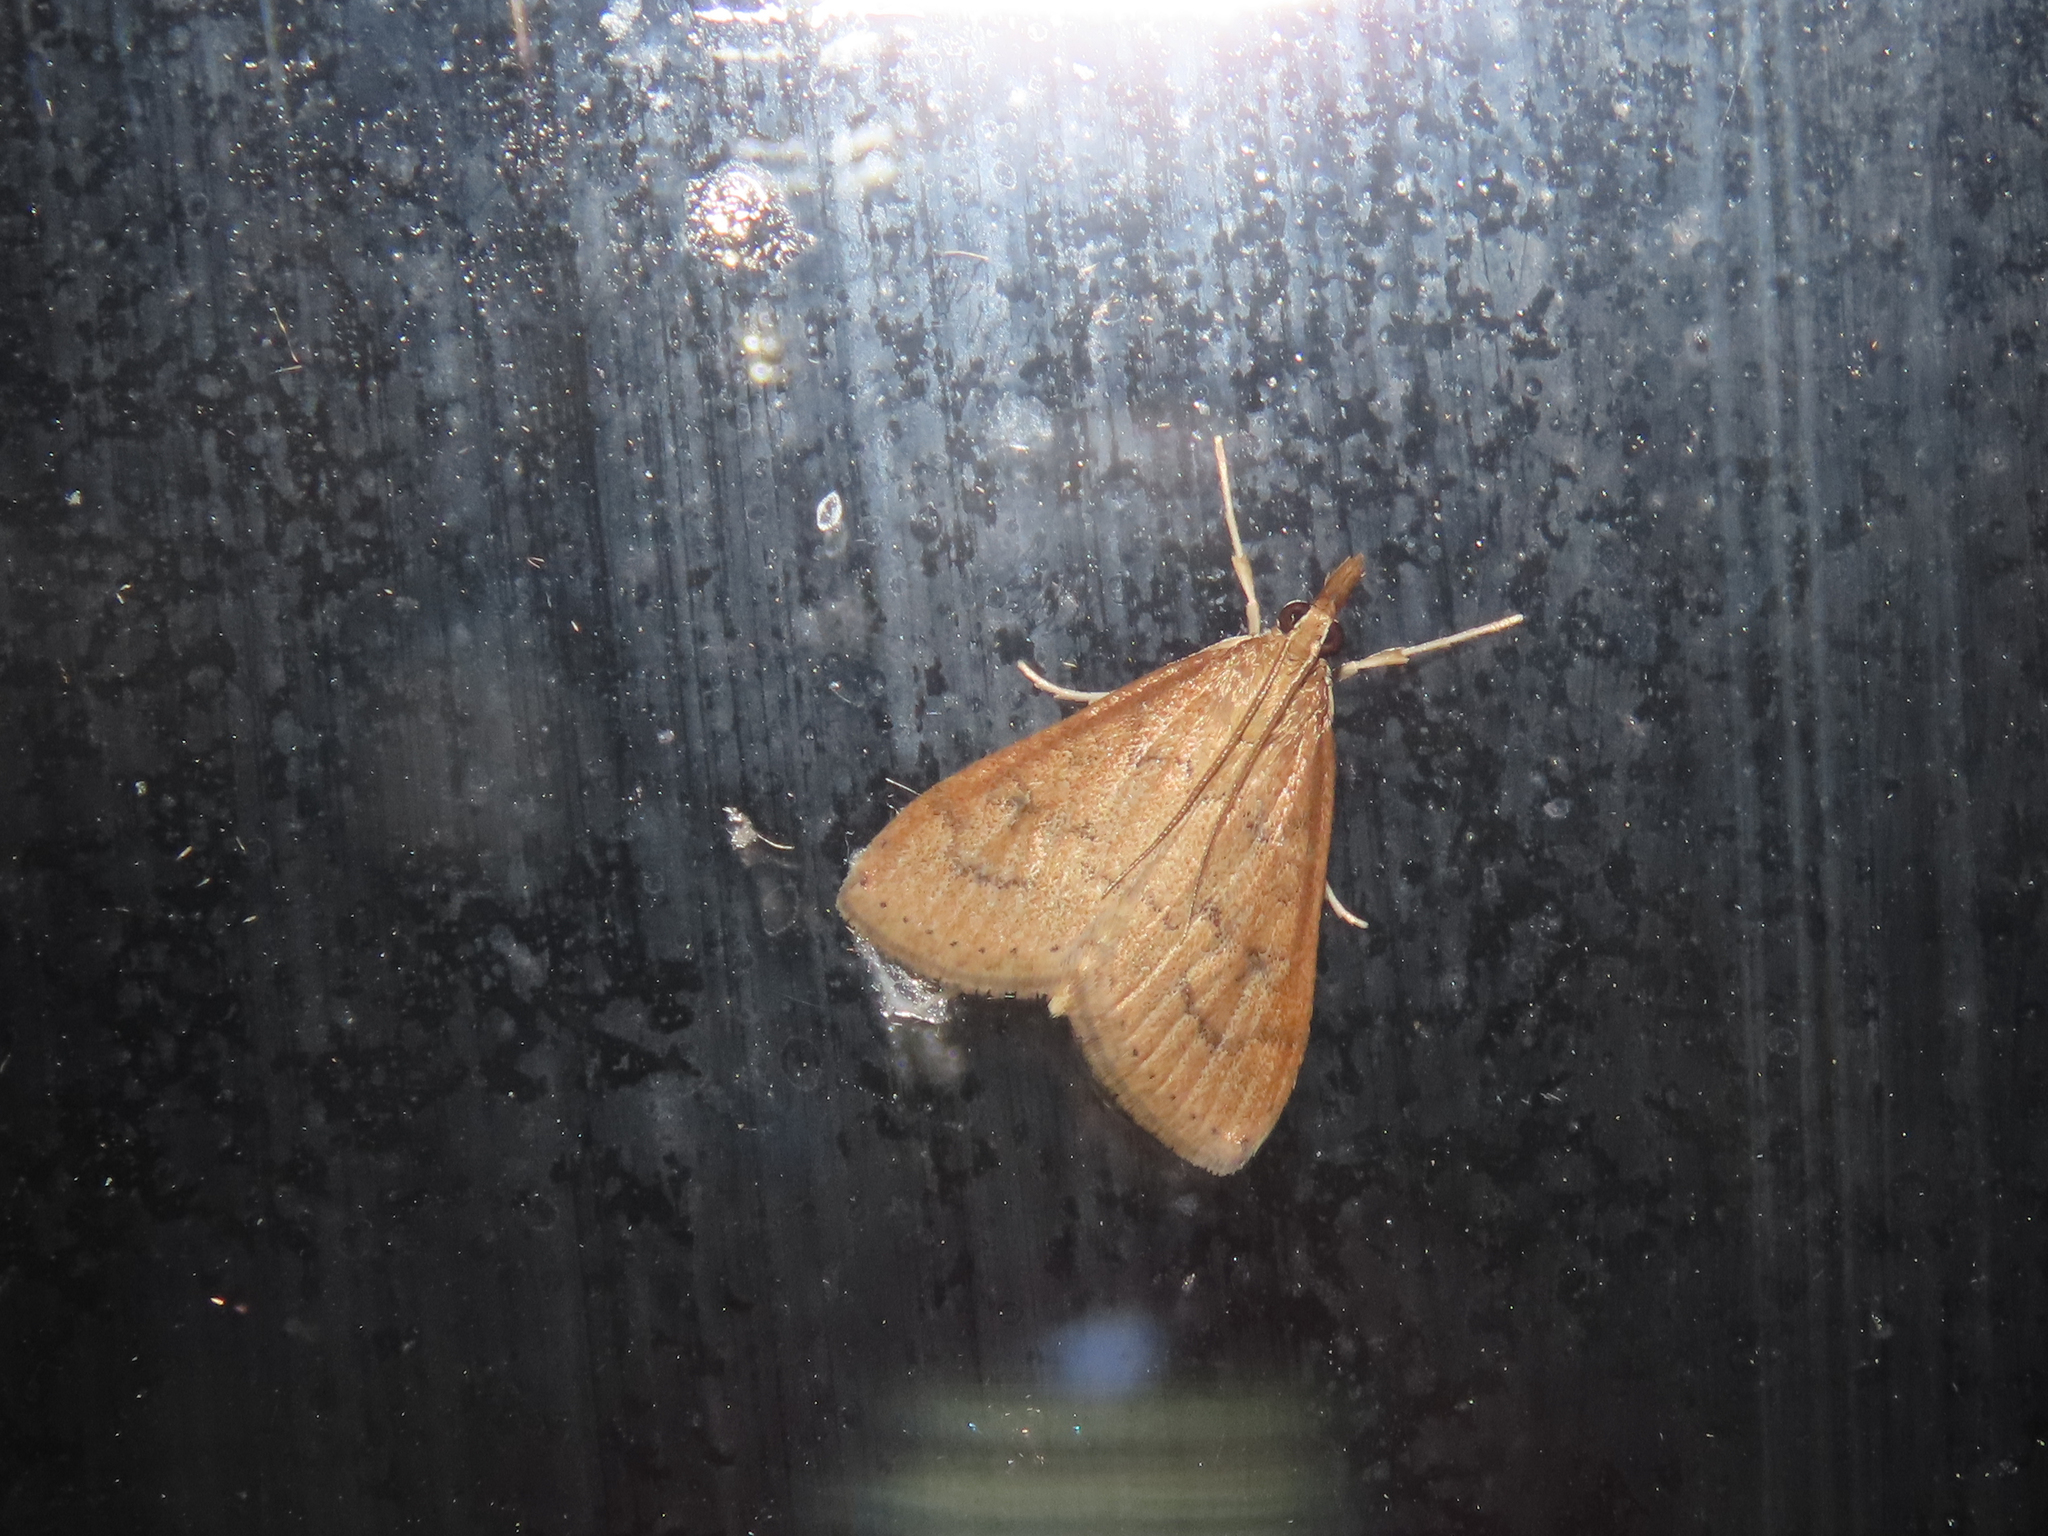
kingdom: Animalia
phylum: Arthropoda
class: Insecta
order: Lepidoptera
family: Crambidae
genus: Udea
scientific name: Udea rubigalis
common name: Celery leaftier moth
